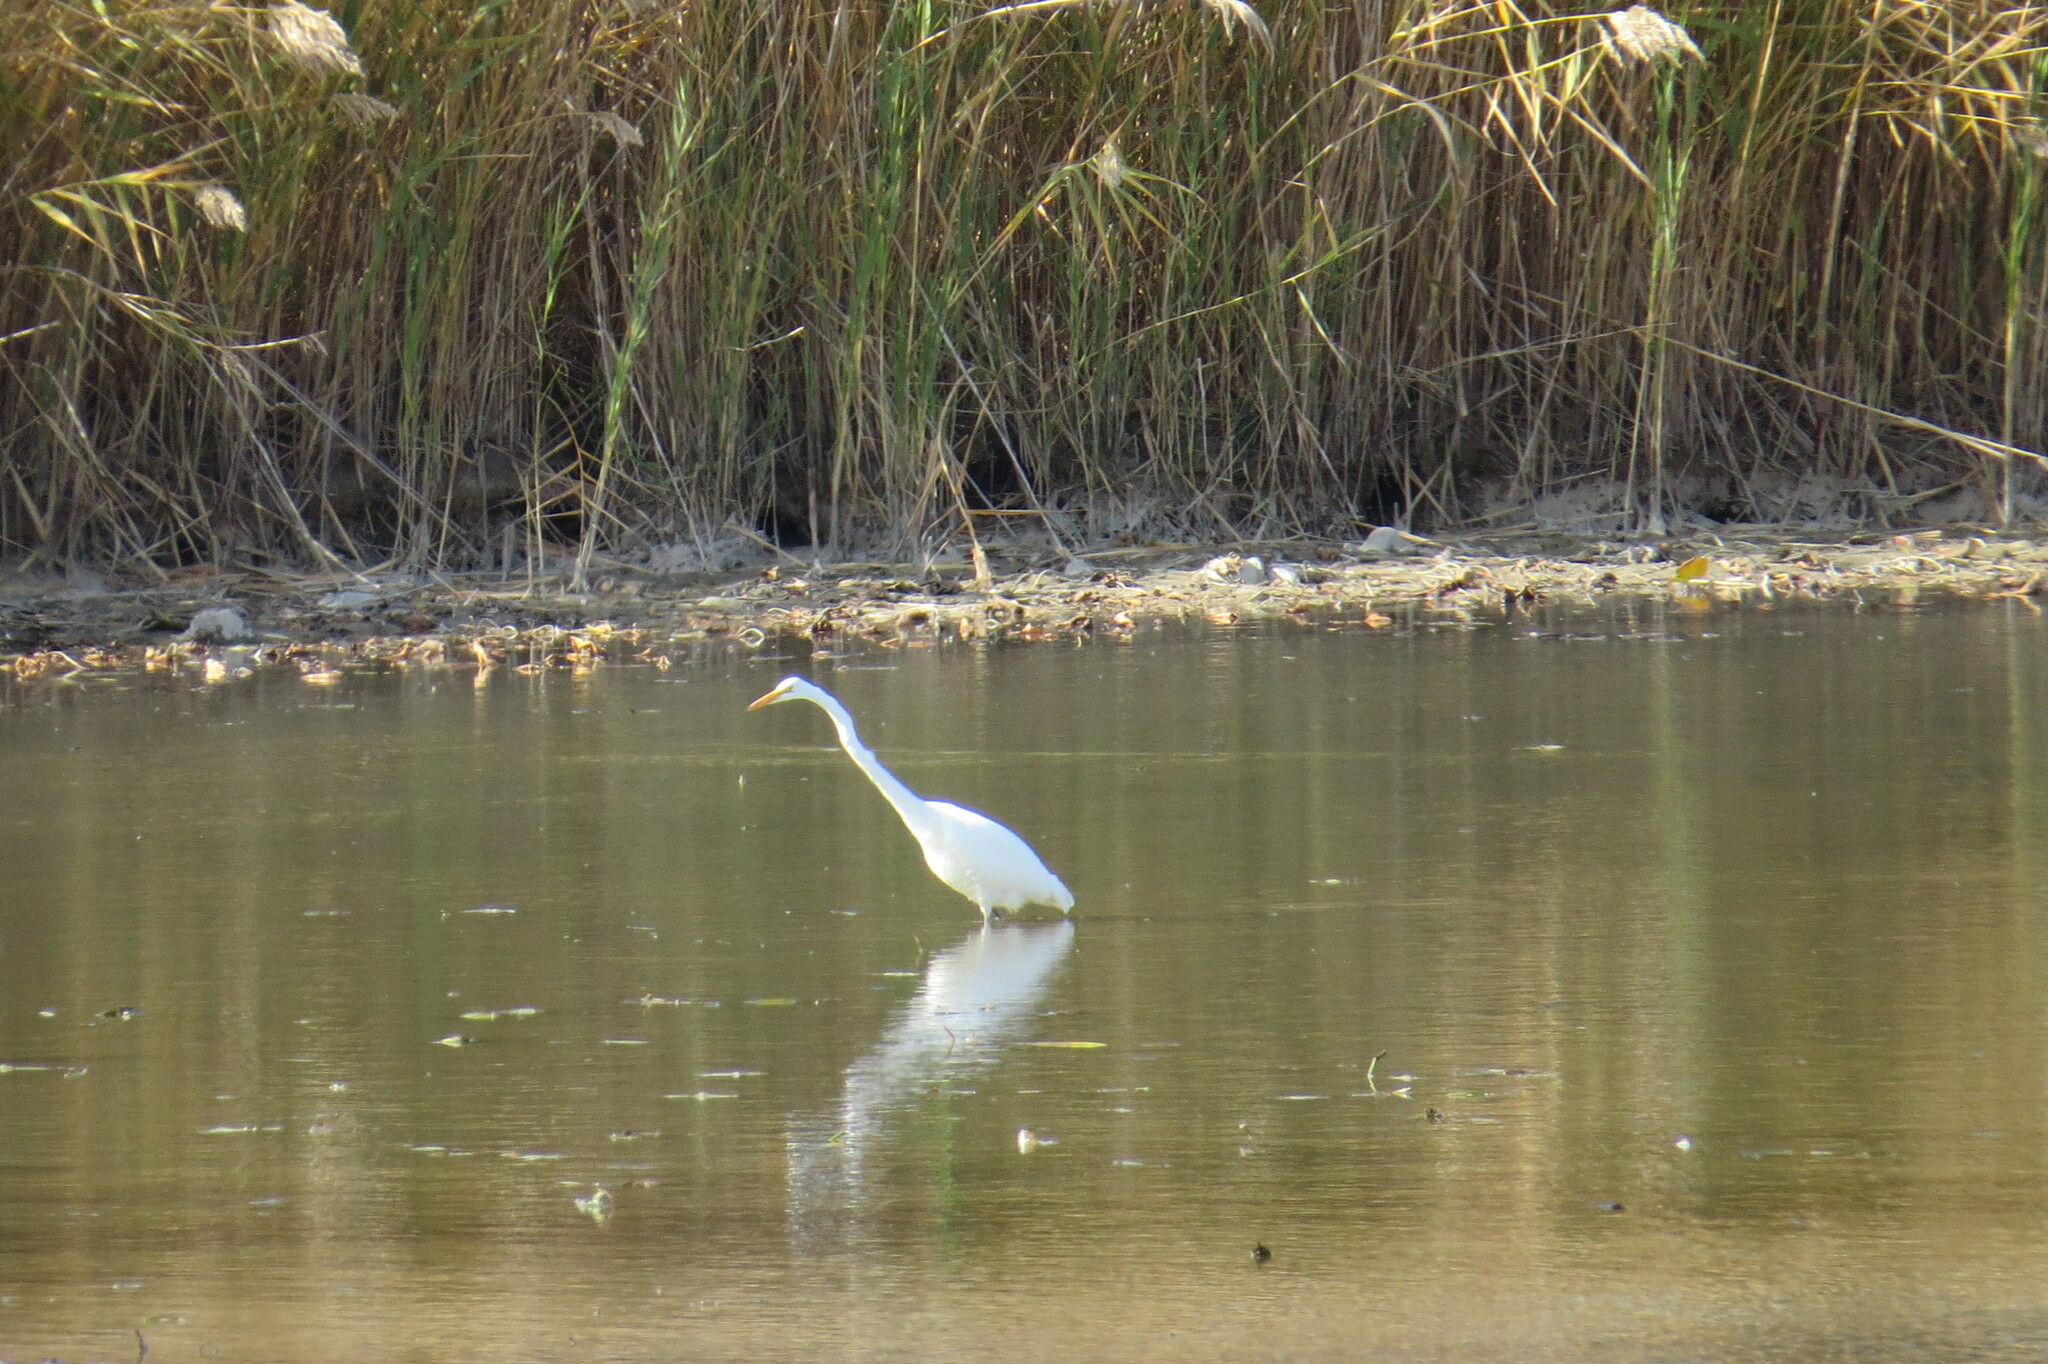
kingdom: Animalia
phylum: Chordata
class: Aves
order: Pelecaniformes
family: Ardeidae
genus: Ardea
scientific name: Ardea alba
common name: Great egret
